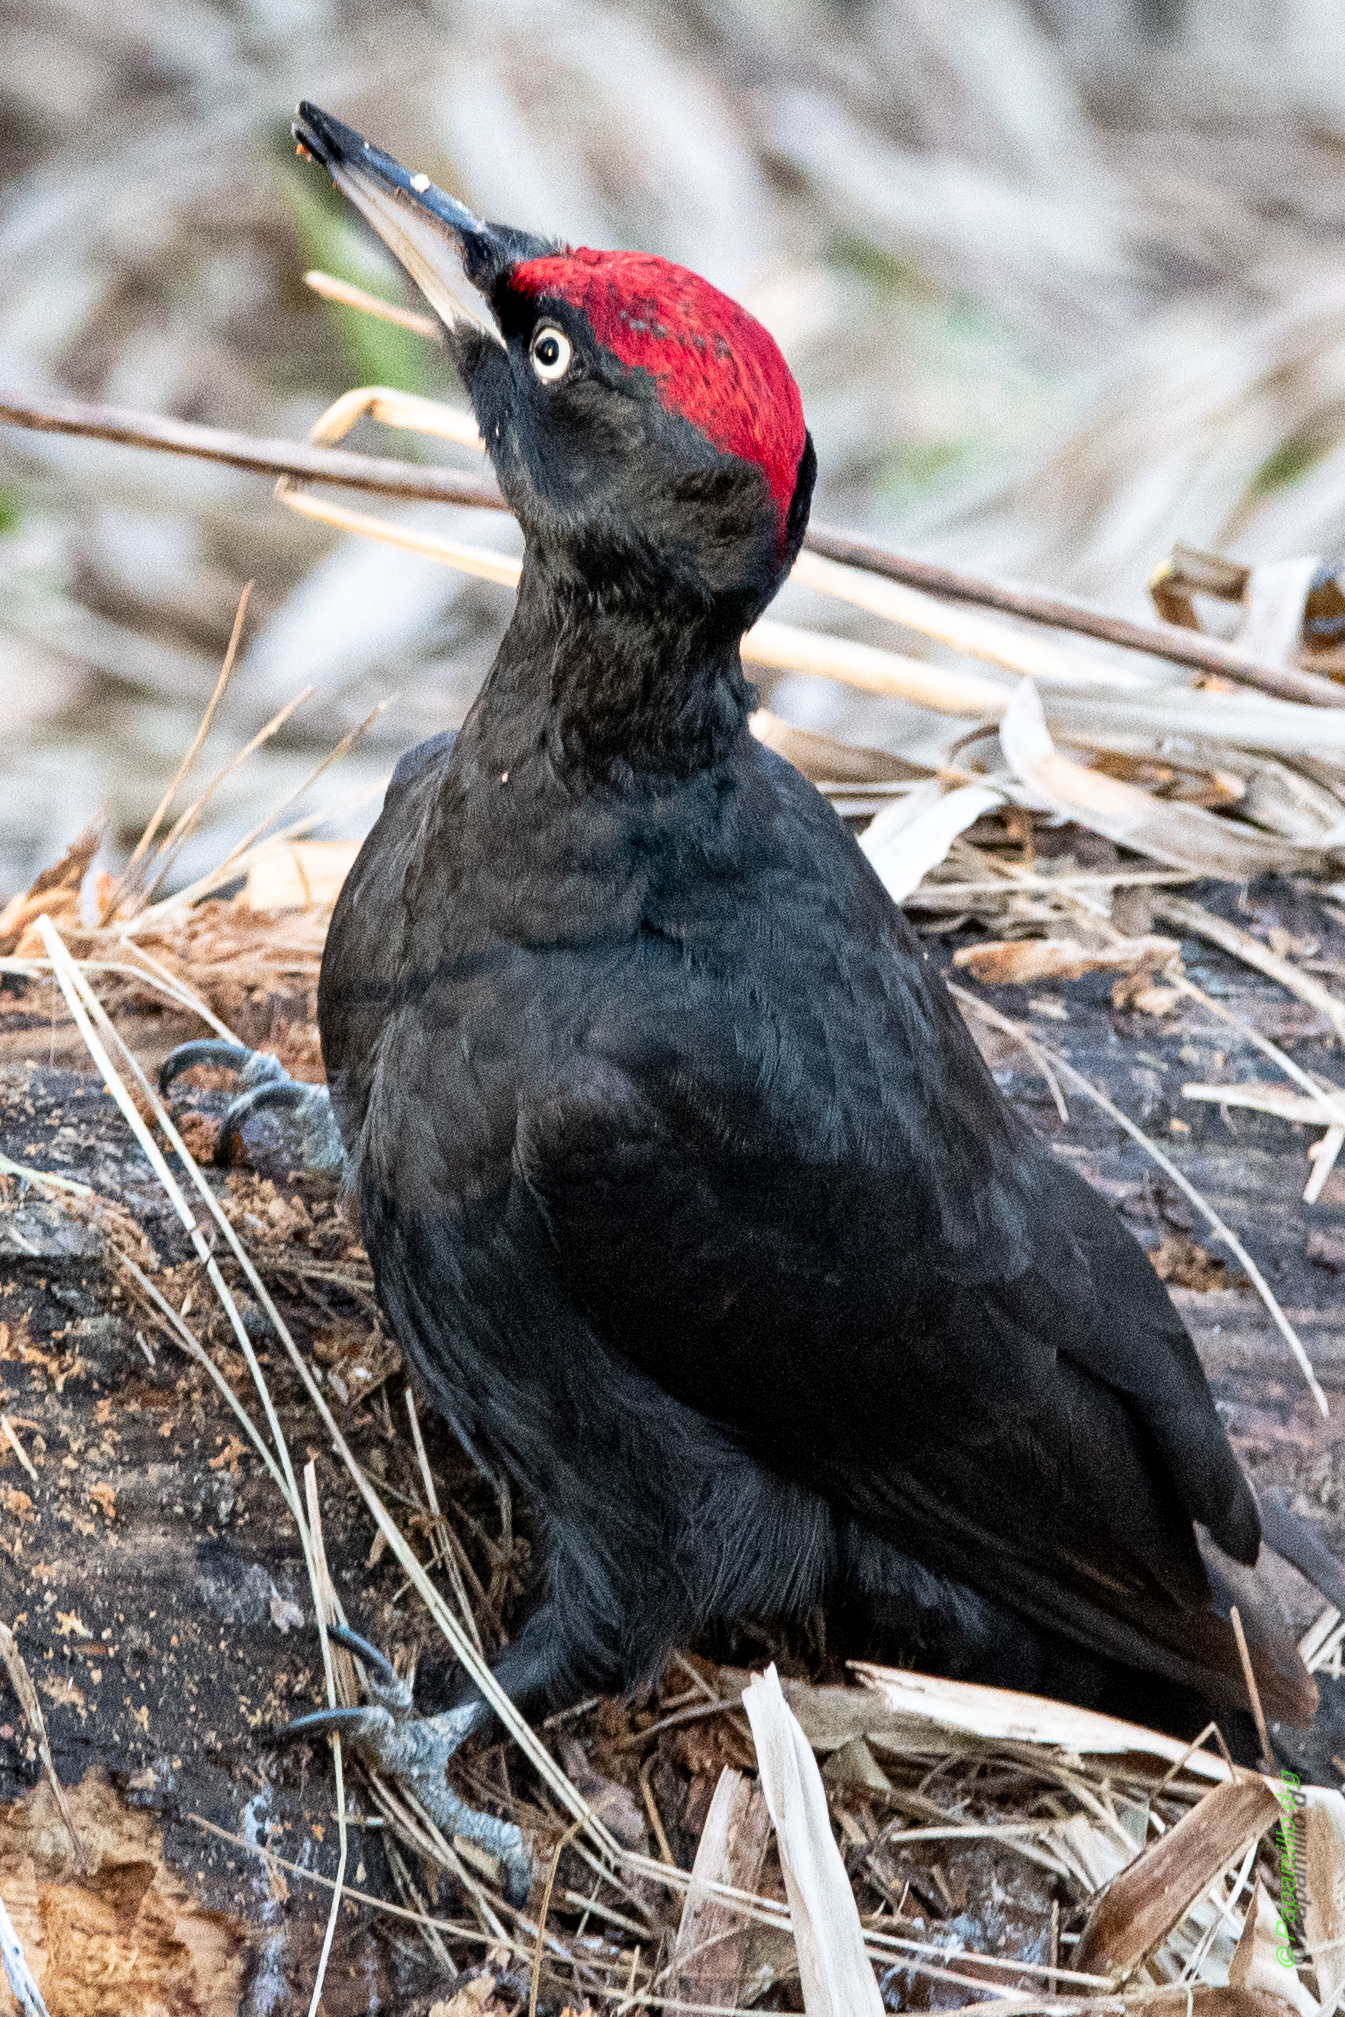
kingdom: Animalia
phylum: Chordata
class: Aves
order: Piciformes
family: Picidae
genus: Dryocopus
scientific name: Dryocopus martius
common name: Black woodpecker
